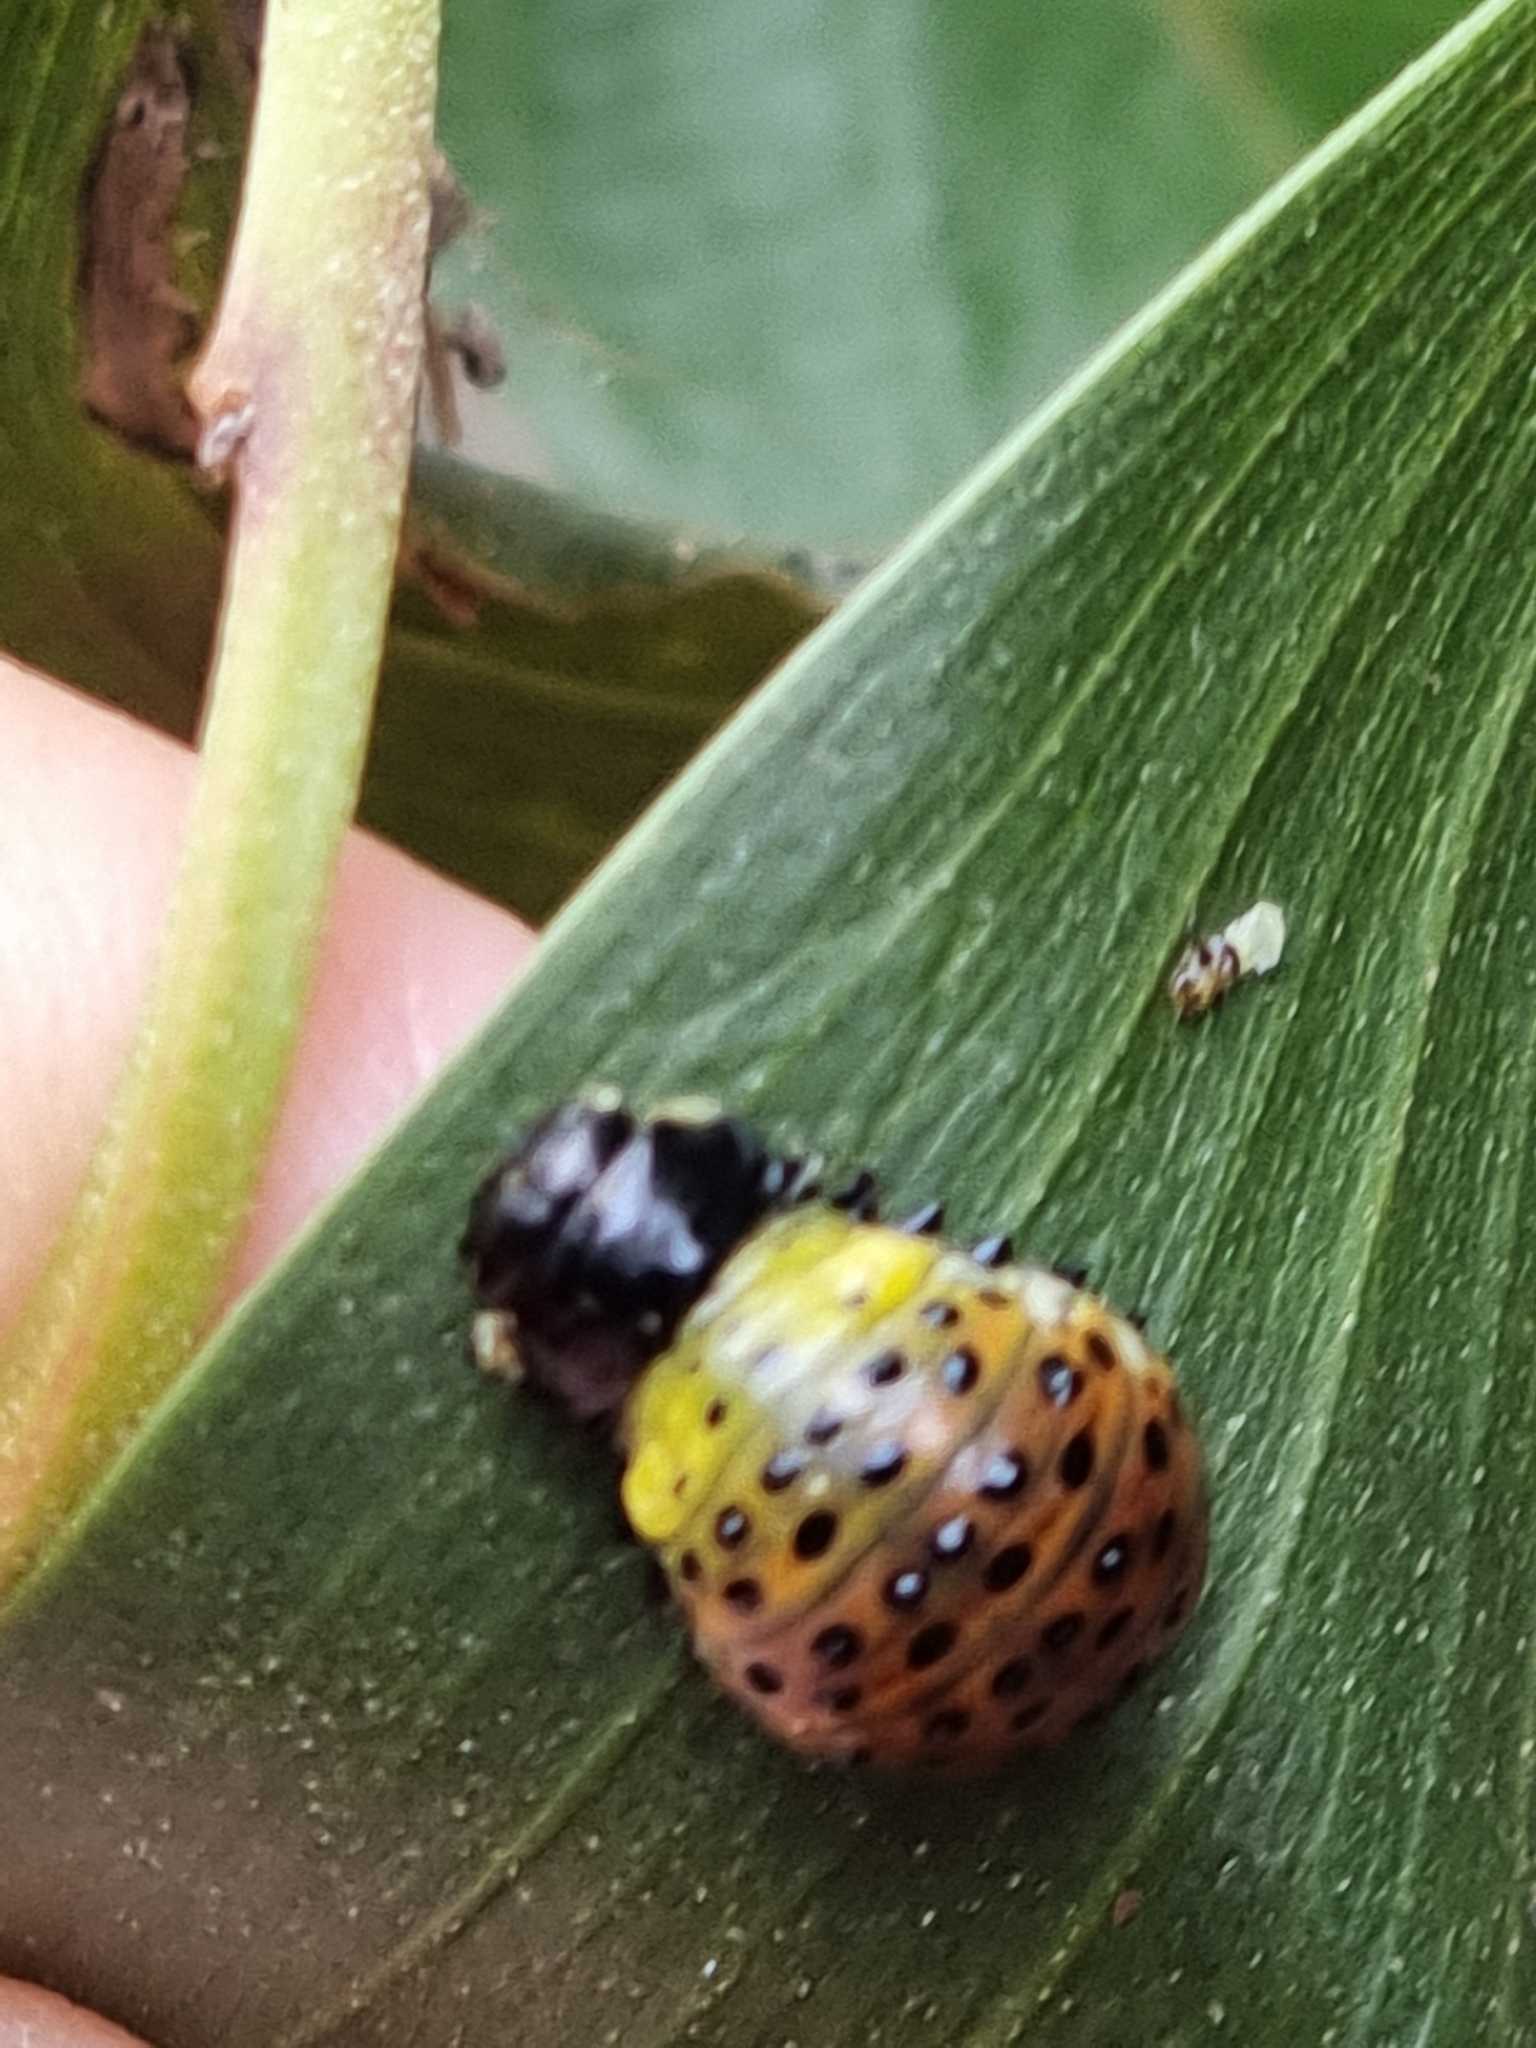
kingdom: Animalia
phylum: Arthropoda
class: Insecta
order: Coleoptera
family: Chrysomelidae
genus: Dicranosterna
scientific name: Dicranosterna
